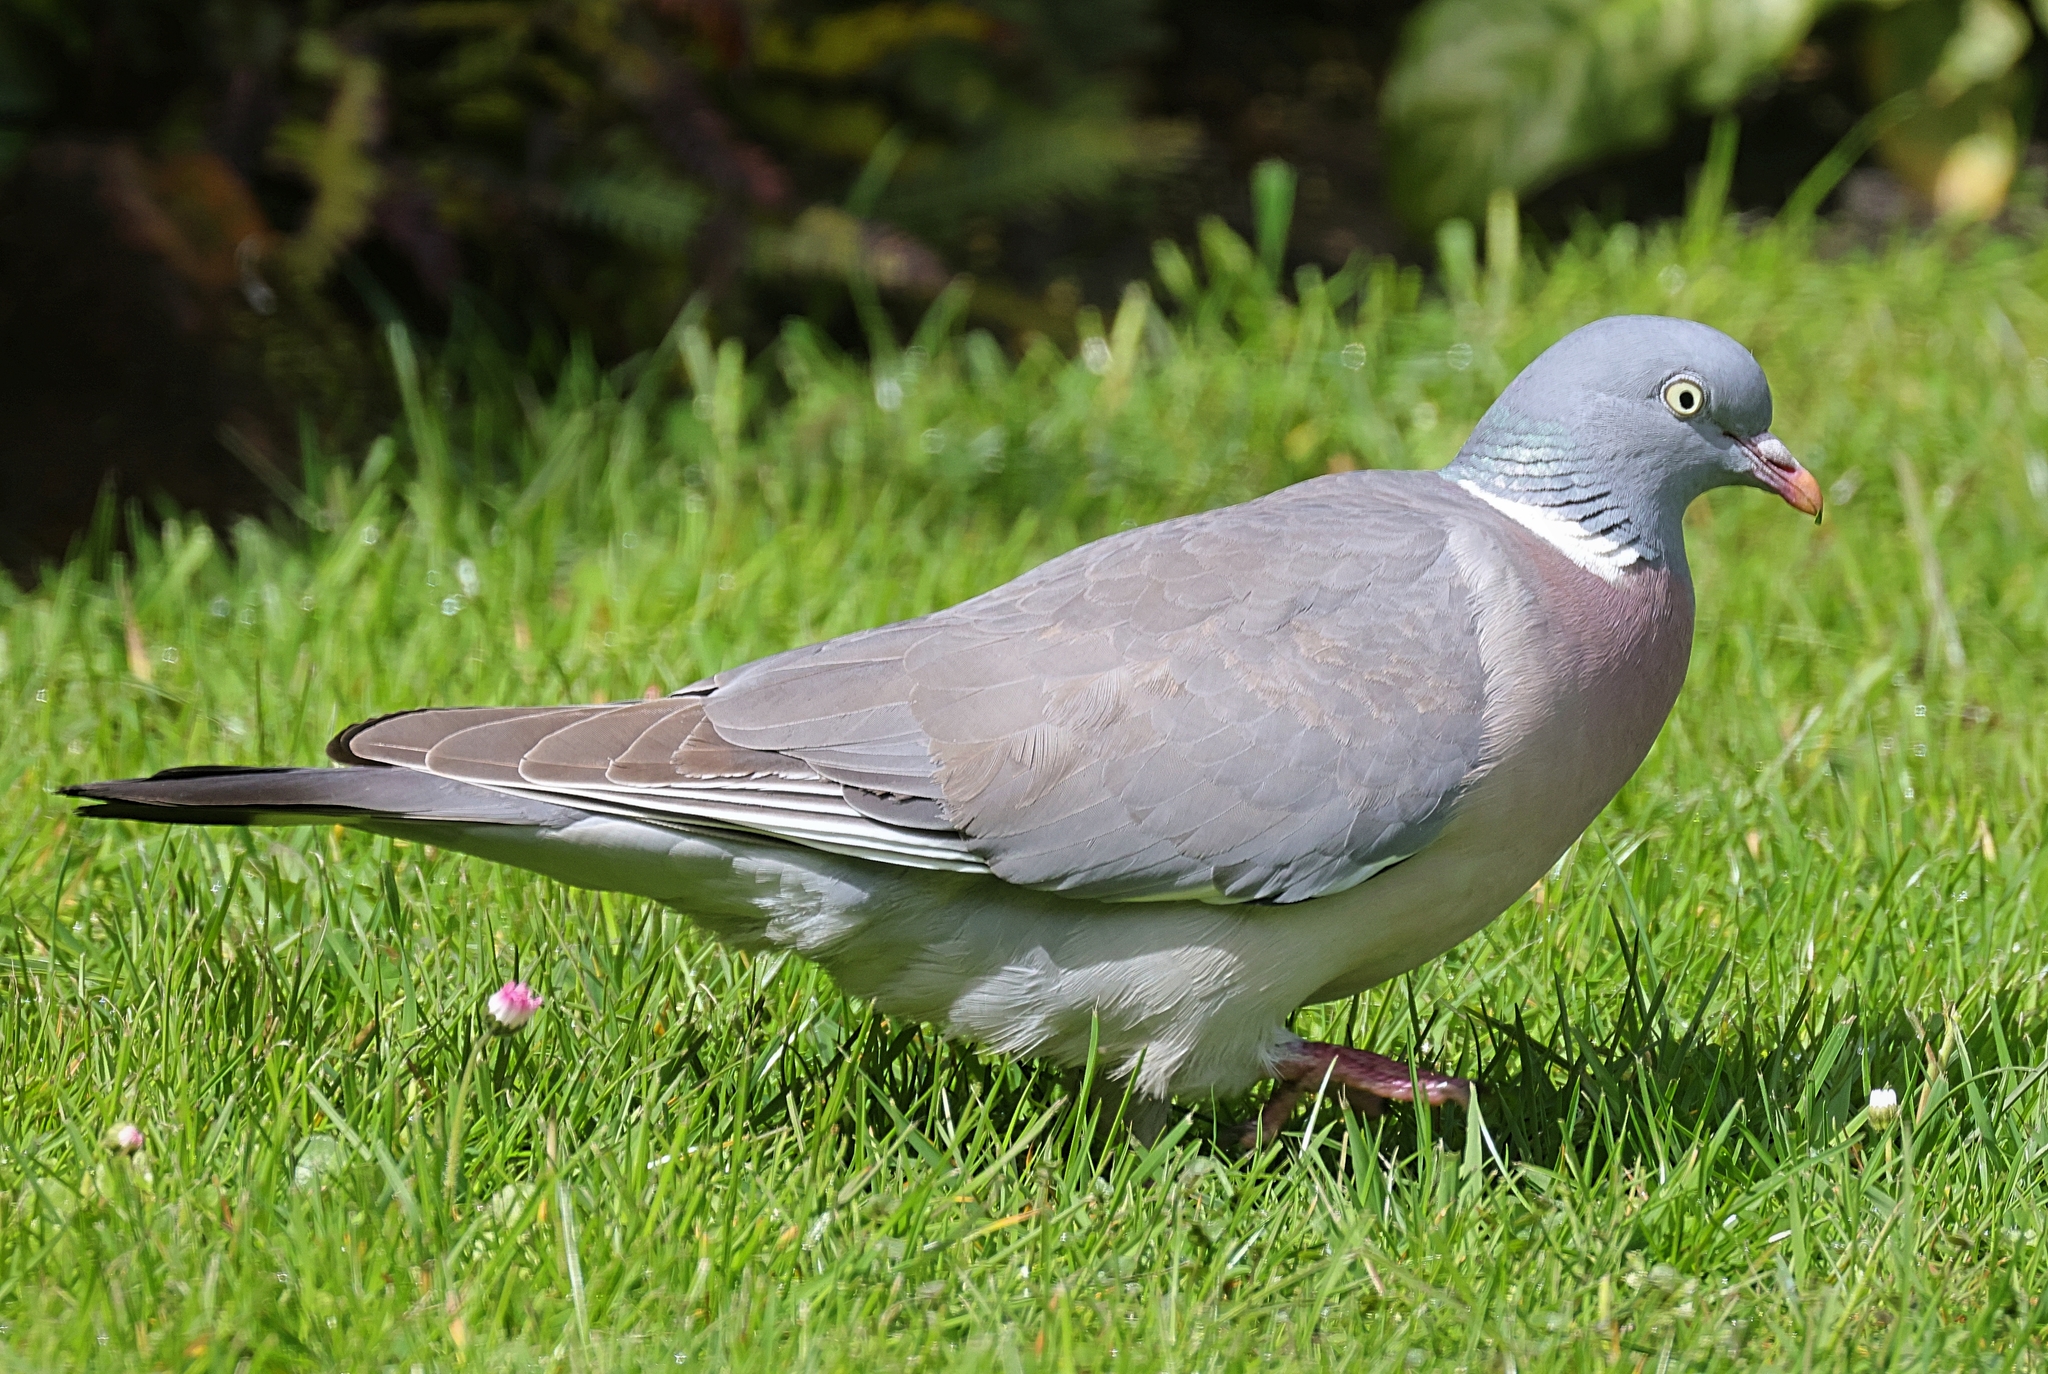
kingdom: Animalia
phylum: Chordata
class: Aves
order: Columbiformes
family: Columbidae
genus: Columba
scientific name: Columba palumbus
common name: Common wood pigeon
